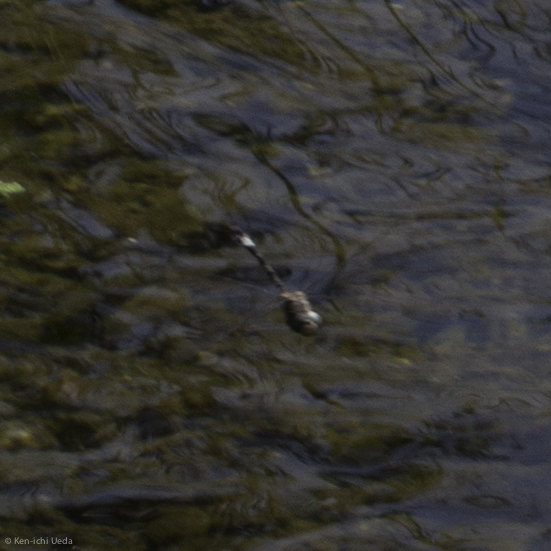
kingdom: Animalia
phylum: Arthropoda
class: Insecta
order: Odonata
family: Libellulidae
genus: Brechmorhoga
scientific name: Brechmorhoga mendax
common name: Pale-faced clubskimmer
